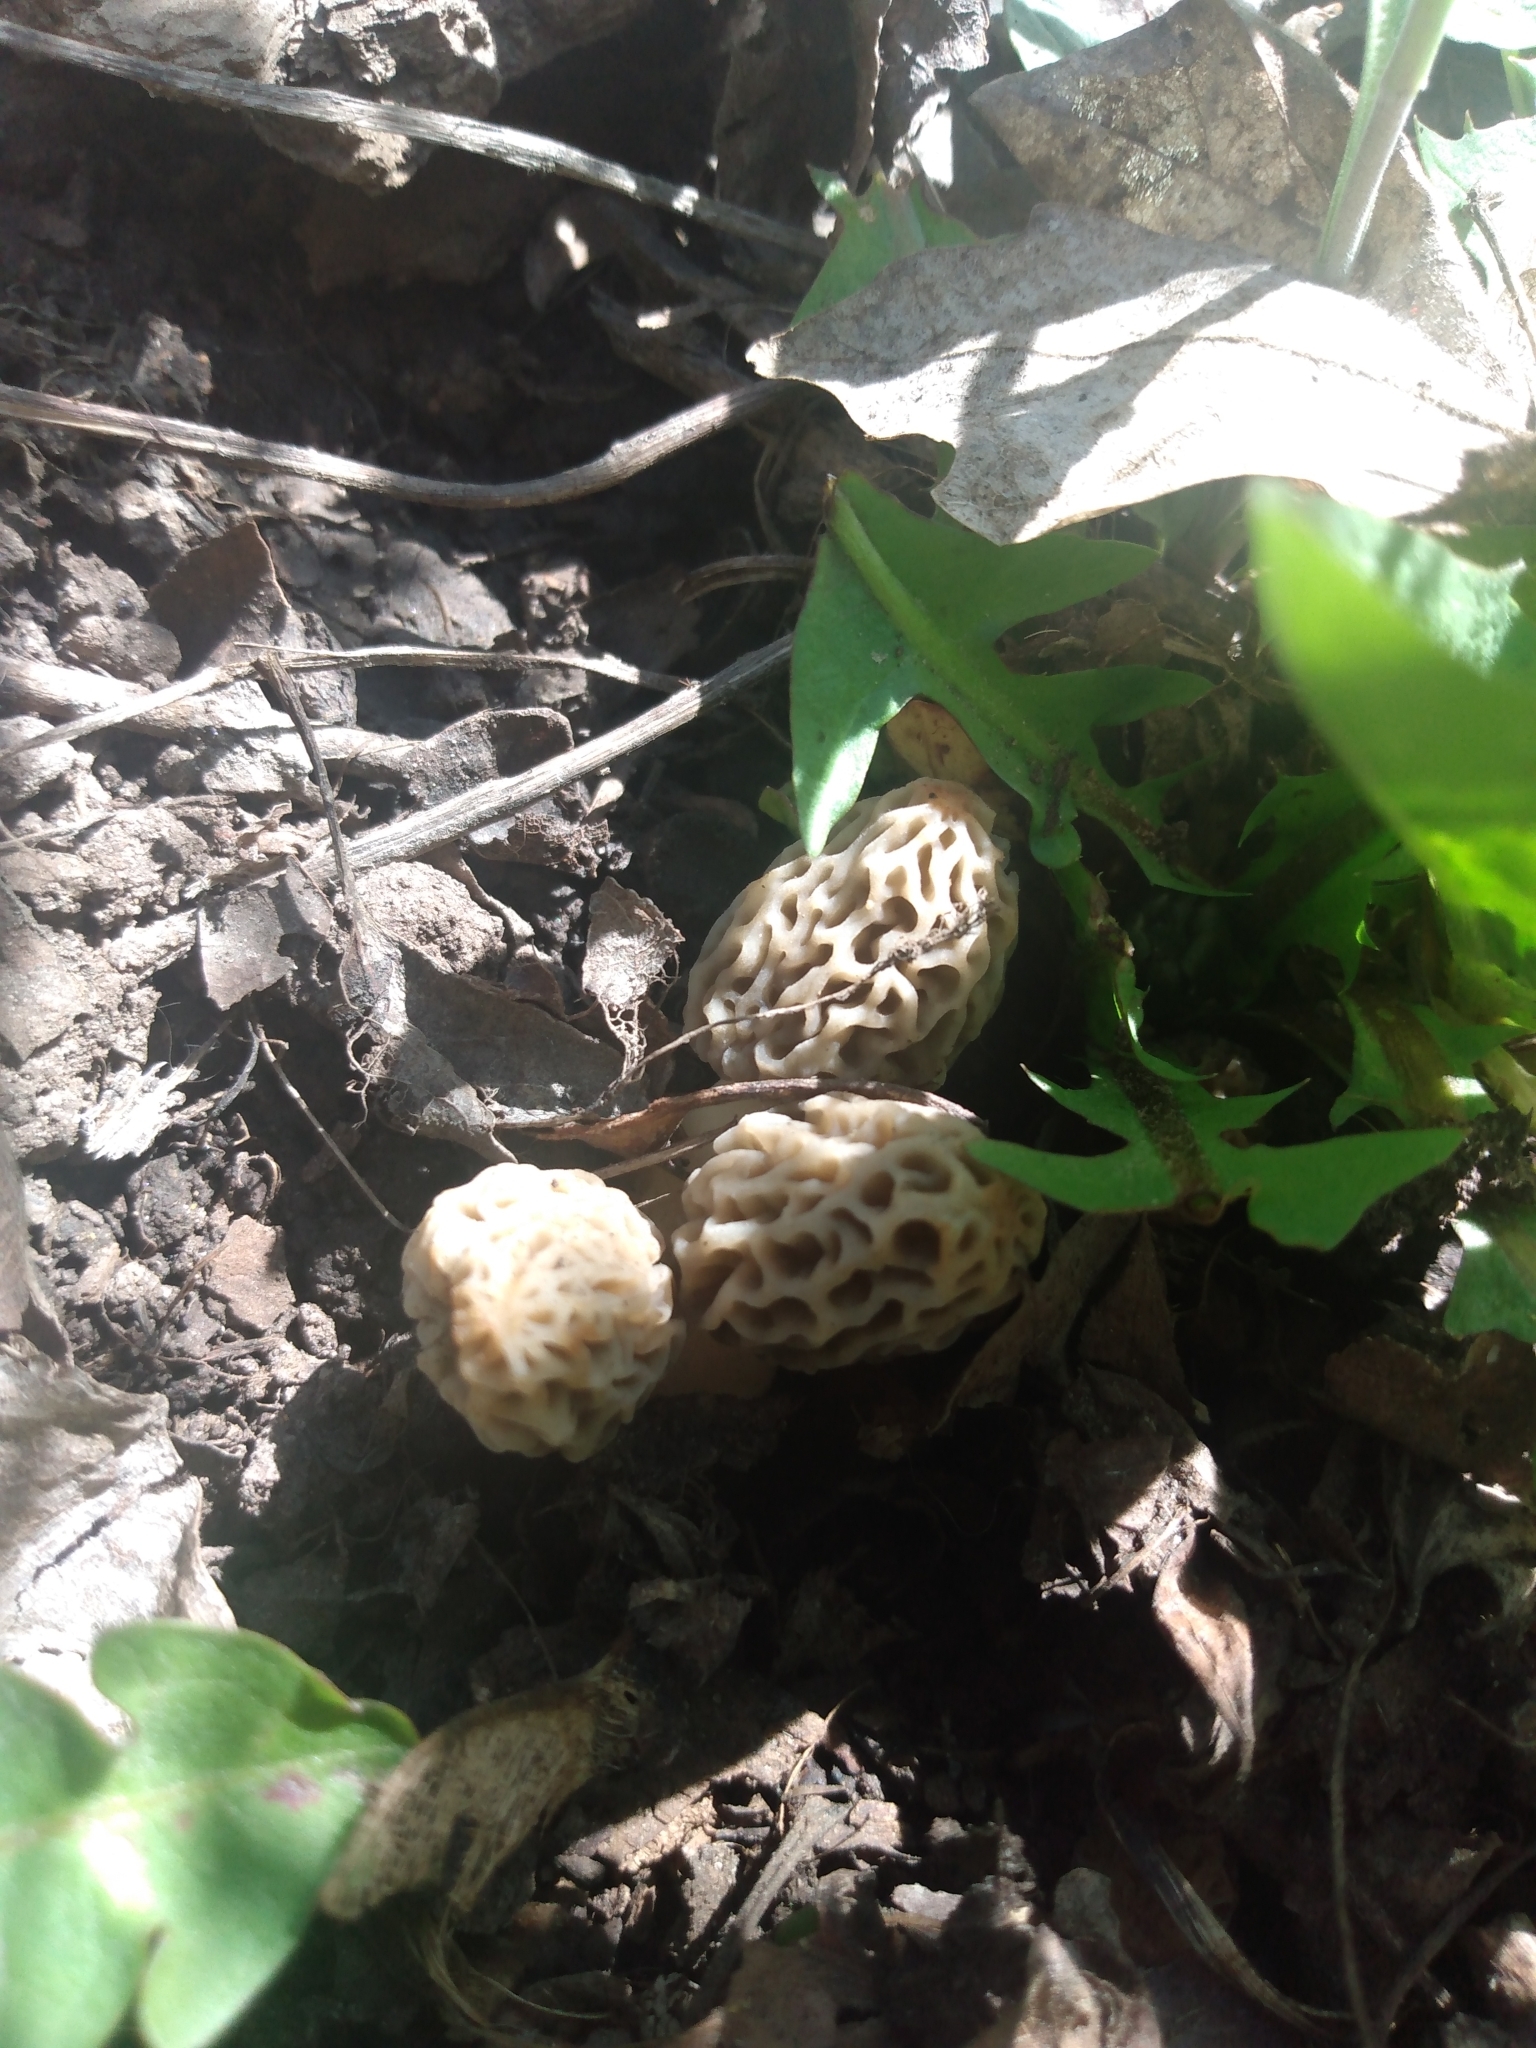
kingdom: Fungi
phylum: Ascomycota
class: Pezizomycetes
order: Pezizales
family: Morchellaceae
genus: Morchella
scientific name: Morchella americana
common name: White morel
